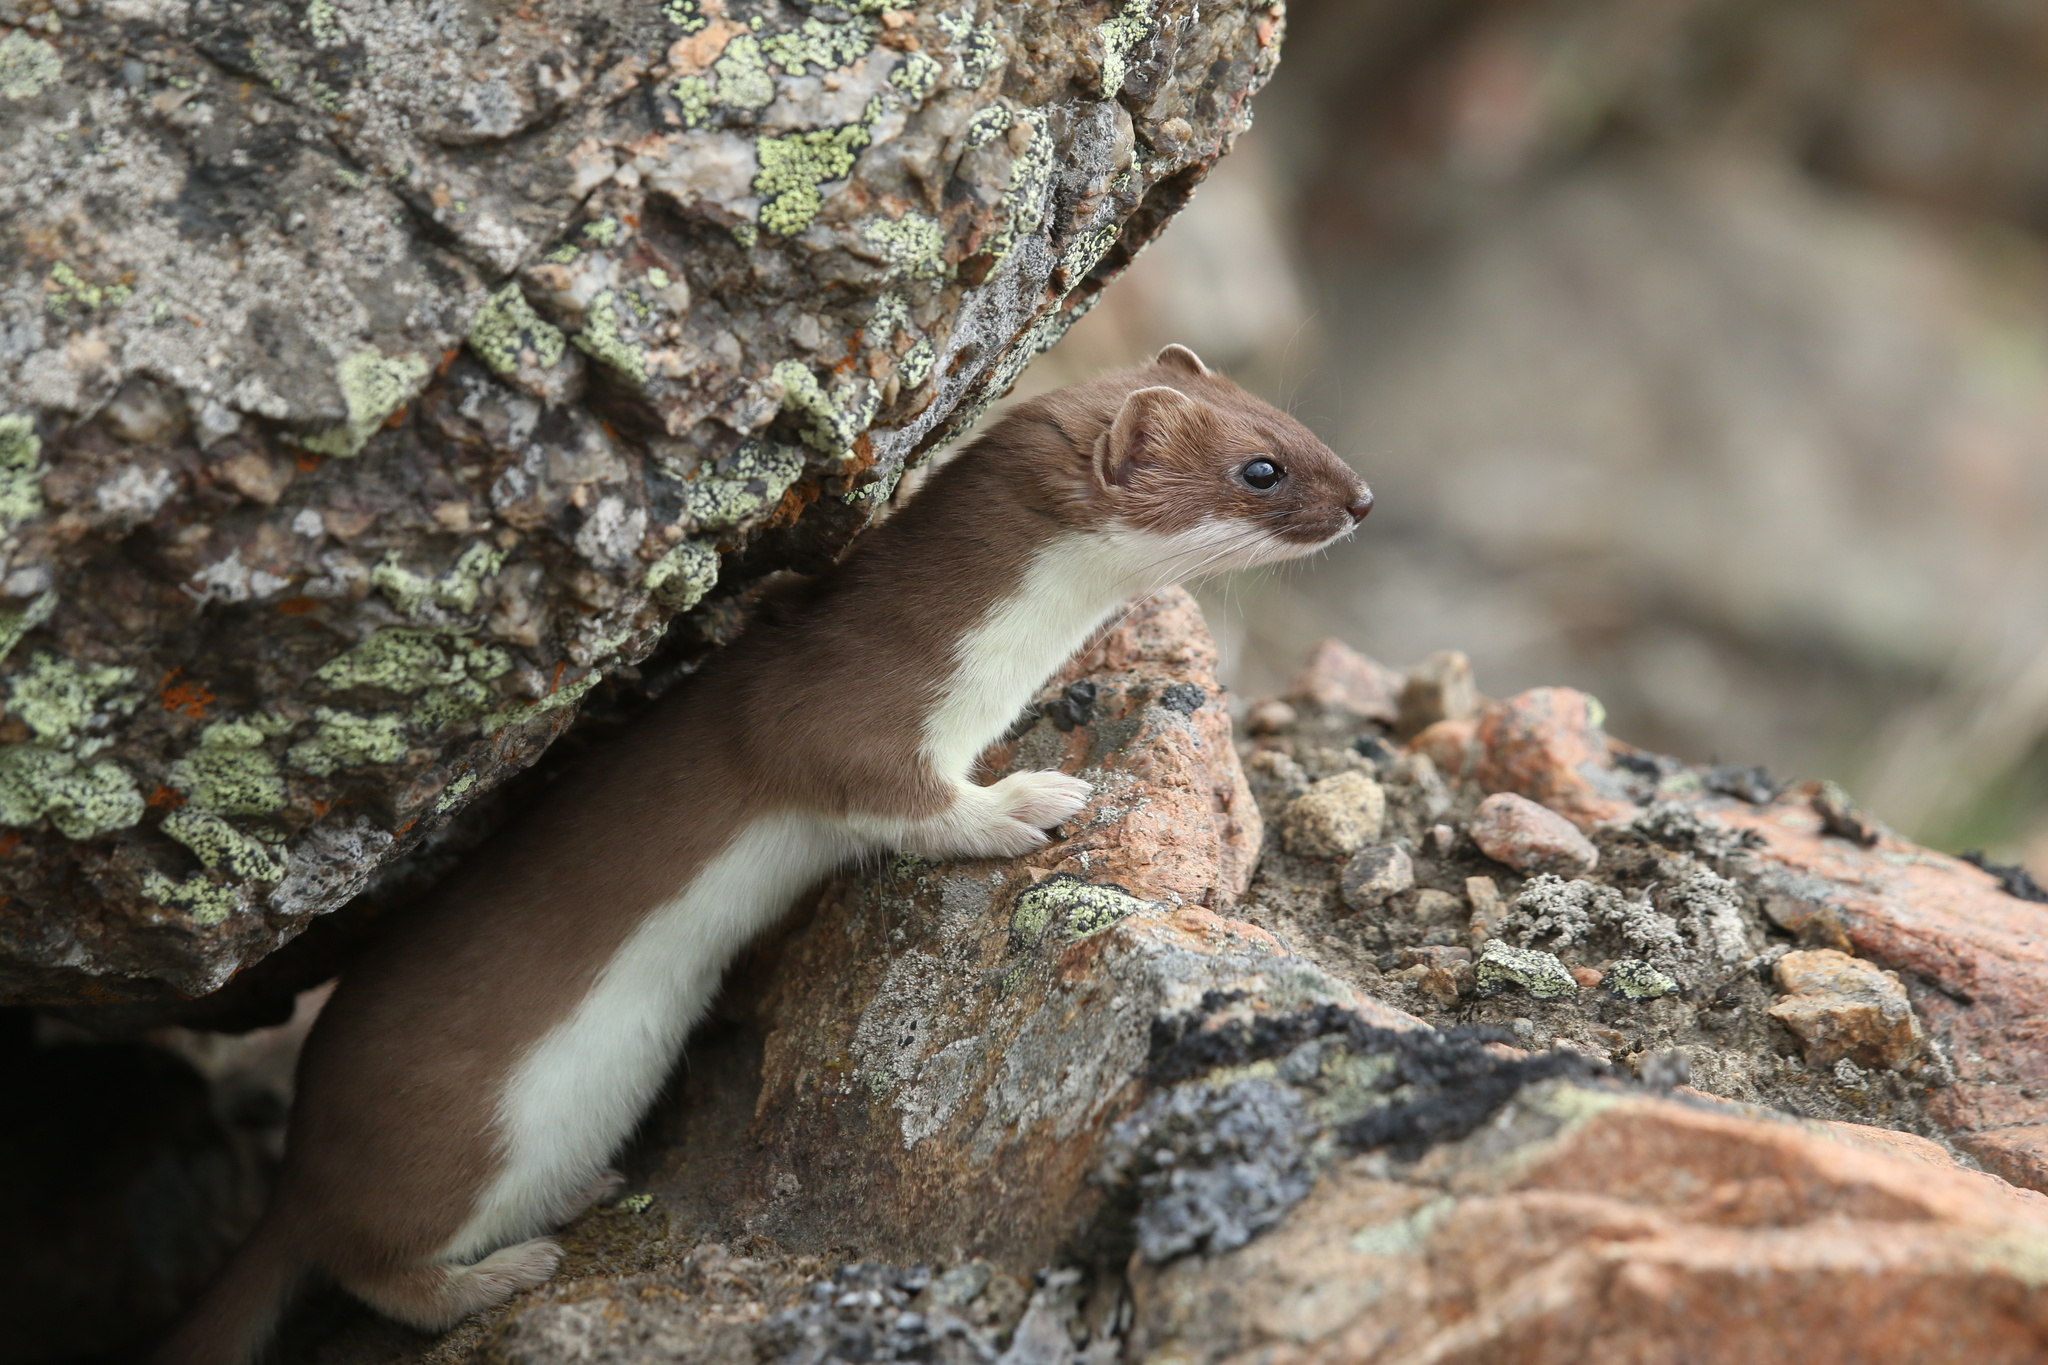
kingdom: Animalia
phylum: Chordata
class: Mammalia
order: Carnivora
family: Mustelidae
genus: Mustela
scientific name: Mustela erminea
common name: Stoat
